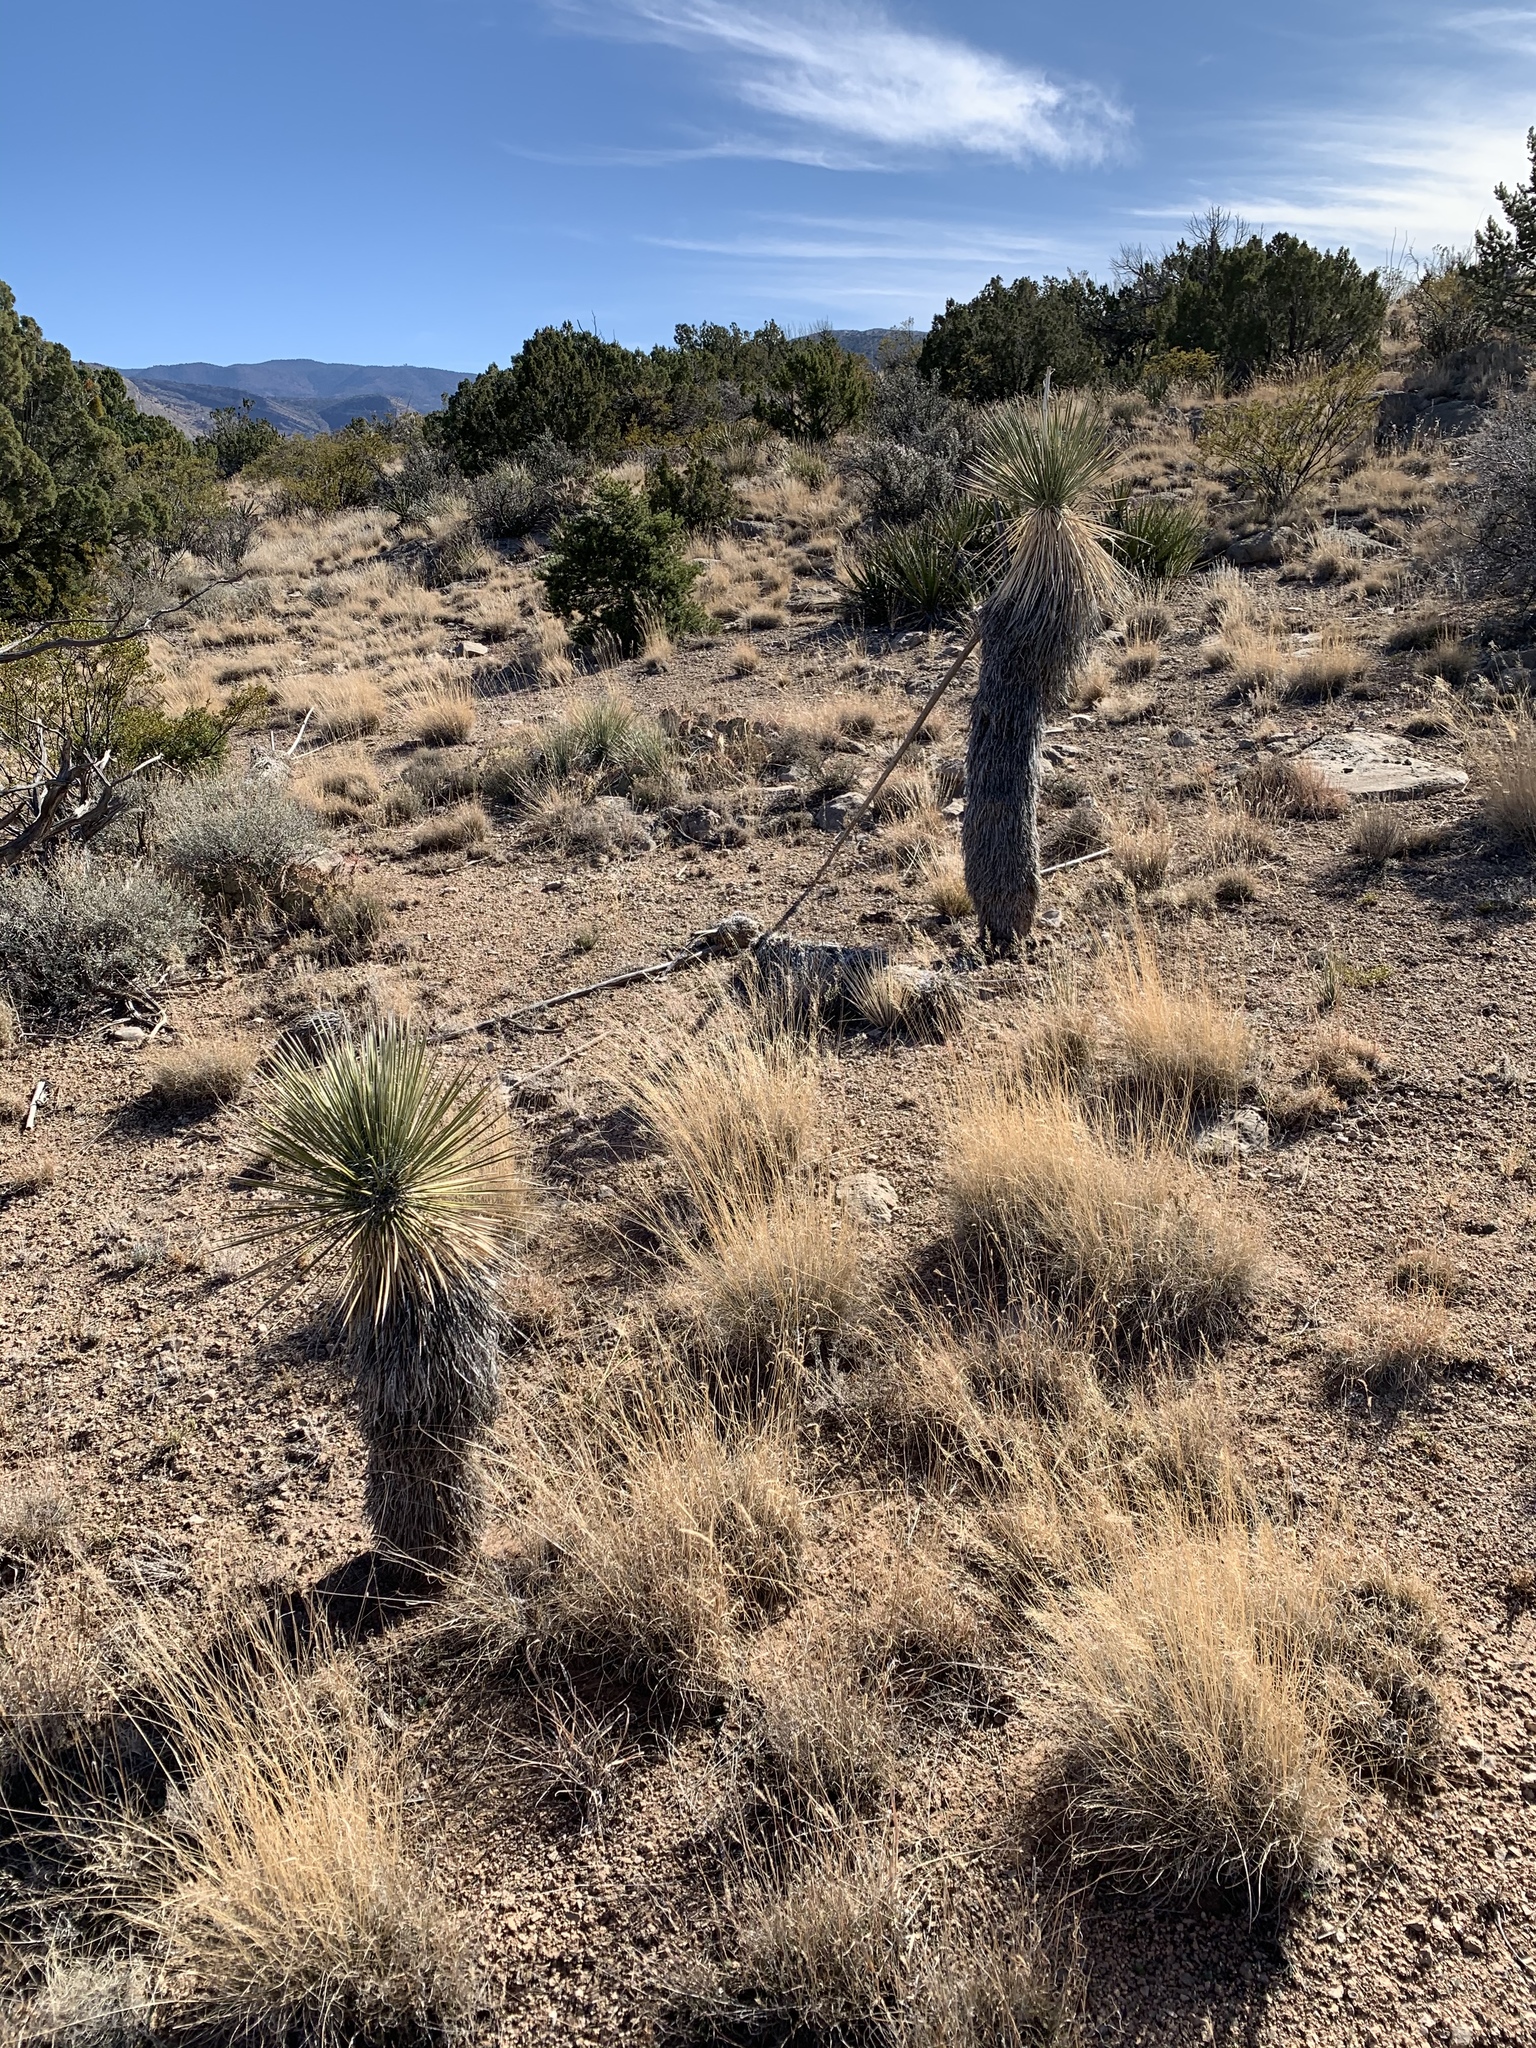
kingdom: Plantae
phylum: Tracheophyta
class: Liliopsida
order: Asparagales
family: Asparagaceae
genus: Yucca
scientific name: Yucca elata
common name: Palmella
